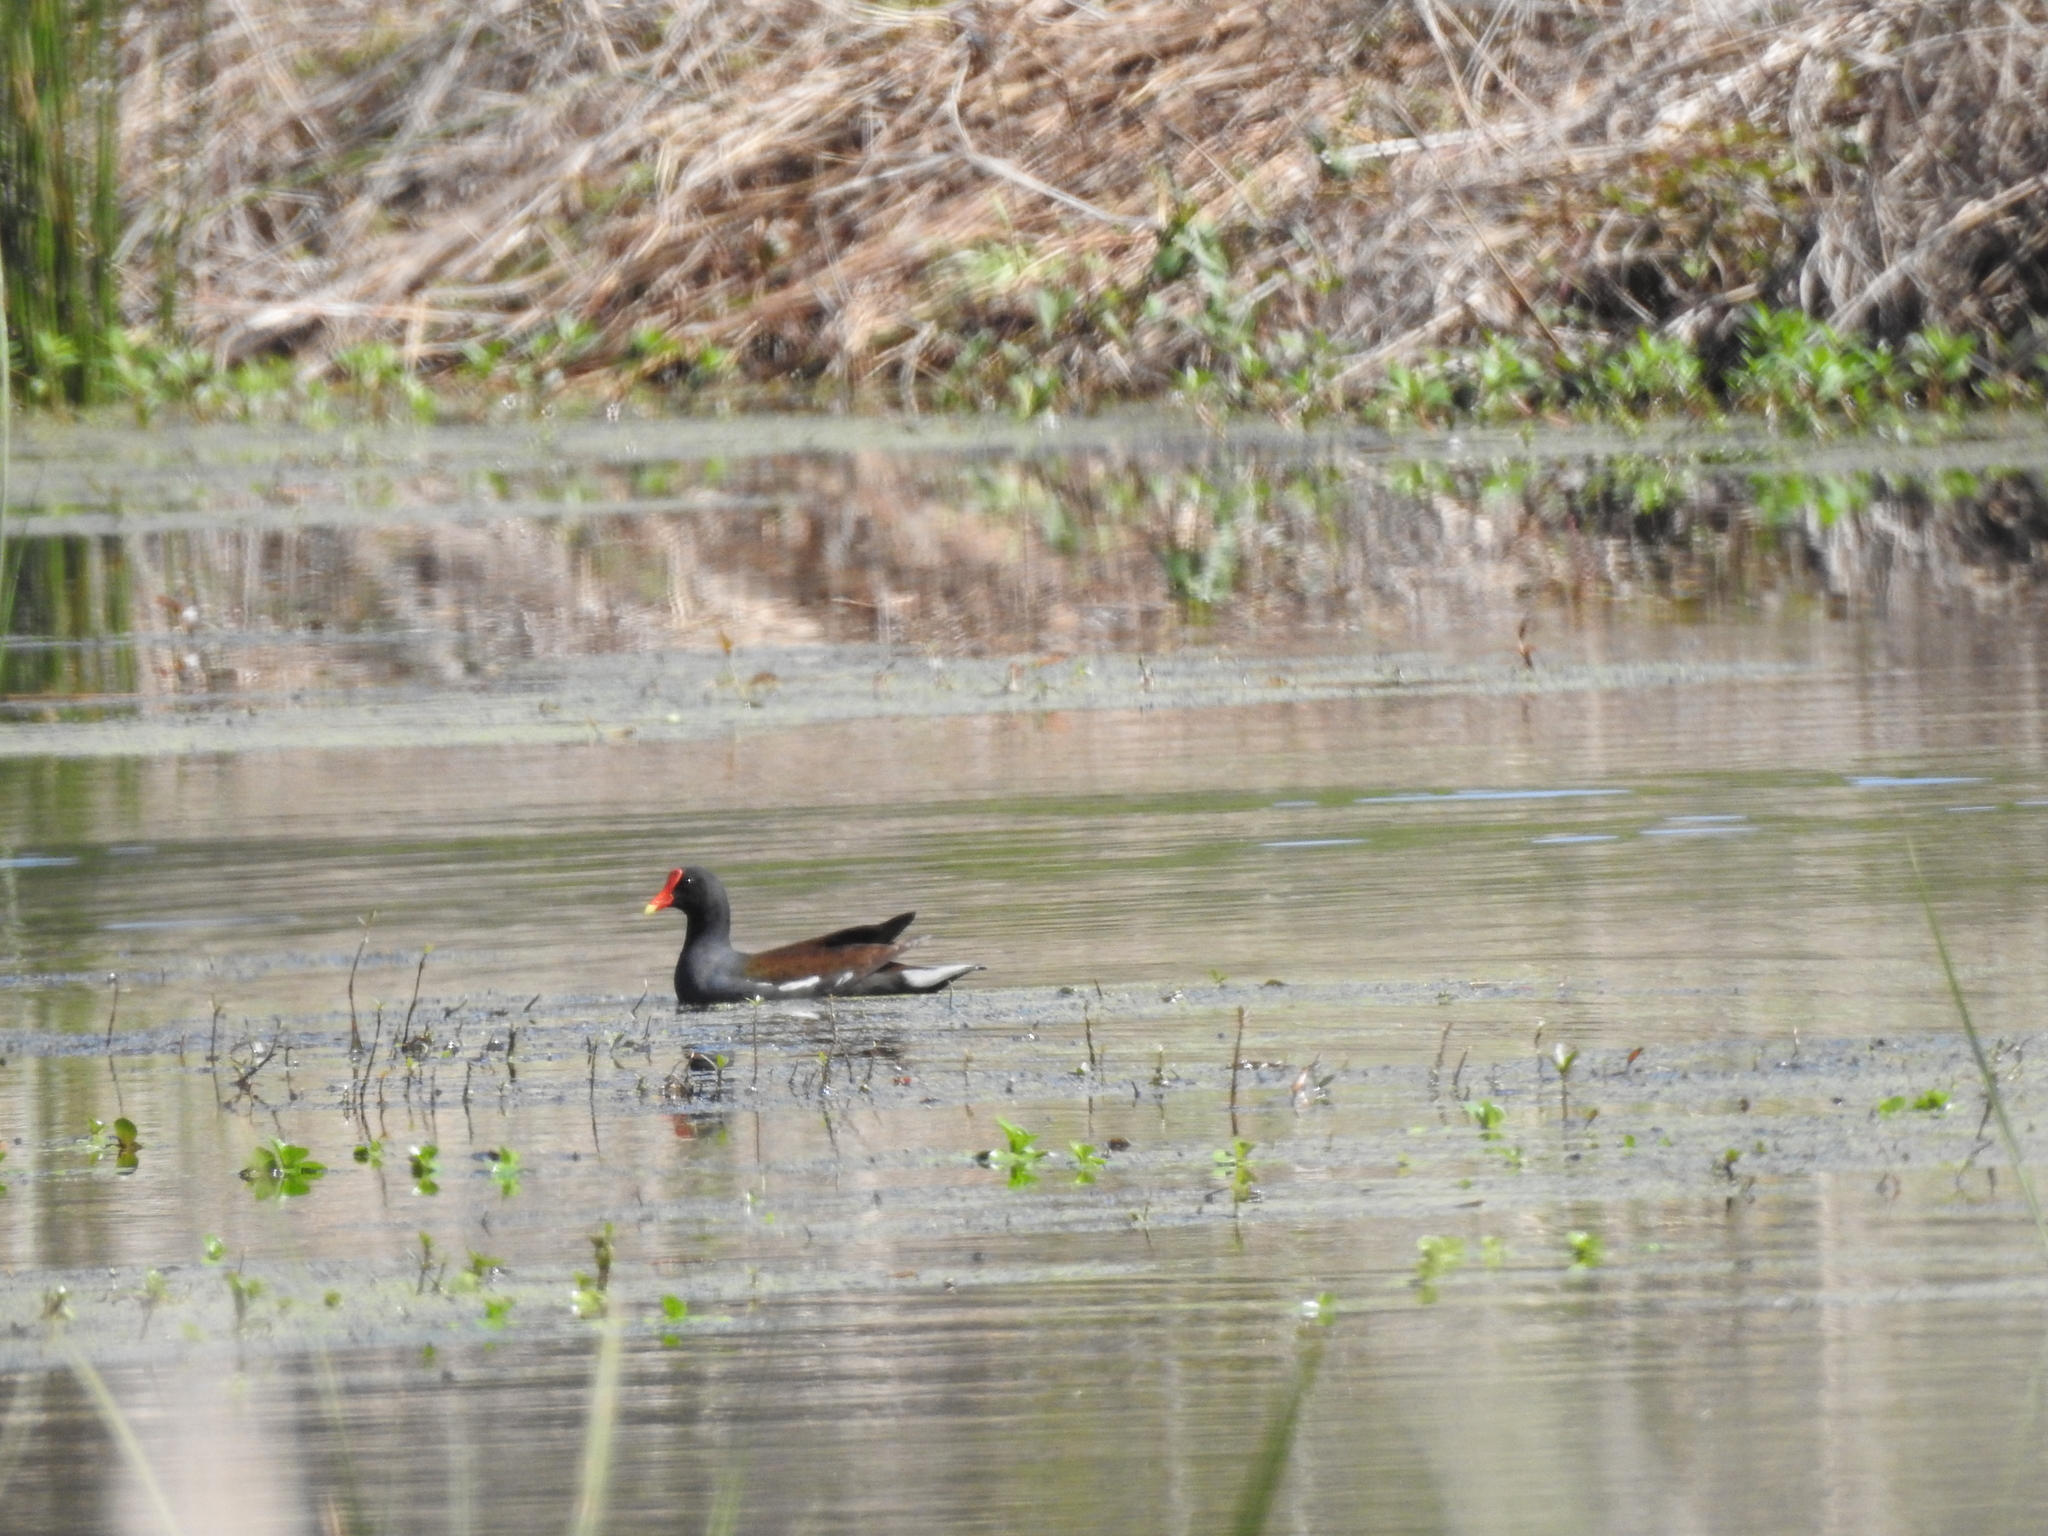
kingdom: Animalia
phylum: Chordata
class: Aves
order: Gruiformes
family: Rallidae
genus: Gallinula
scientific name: Gallinula chloropus
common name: Common moorhen
